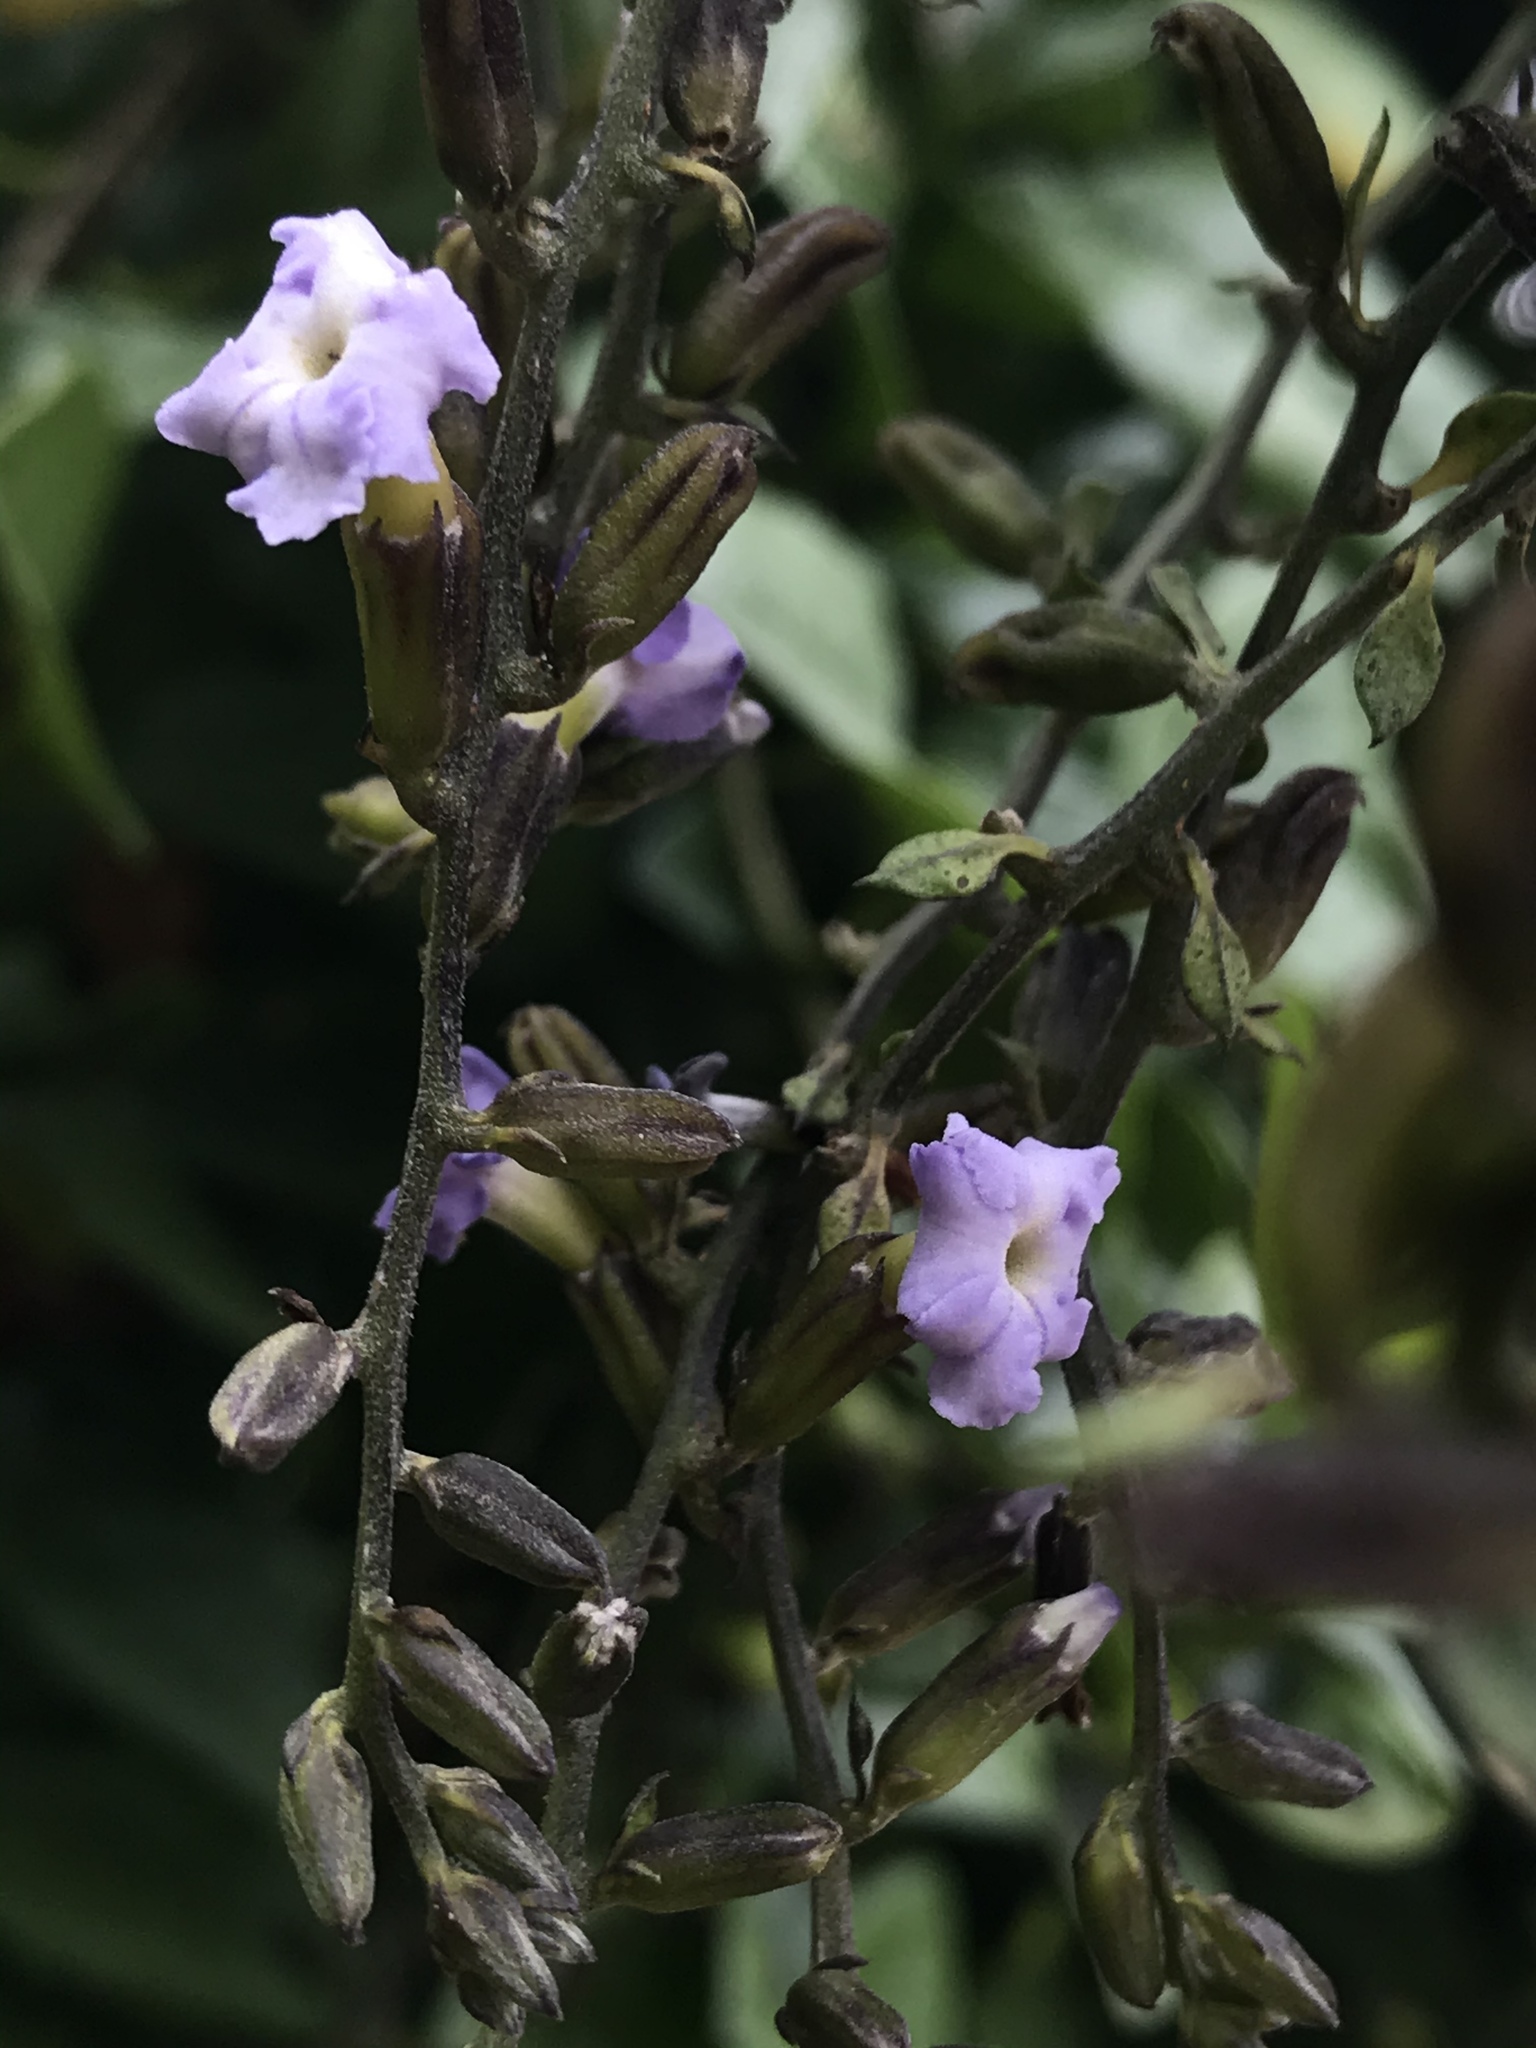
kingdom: Plantae
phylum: Tracheophyta
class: Magnoliopsida
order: Lamiales
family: Verbenaceae
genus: Duranta
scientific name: Duranta mutisii
